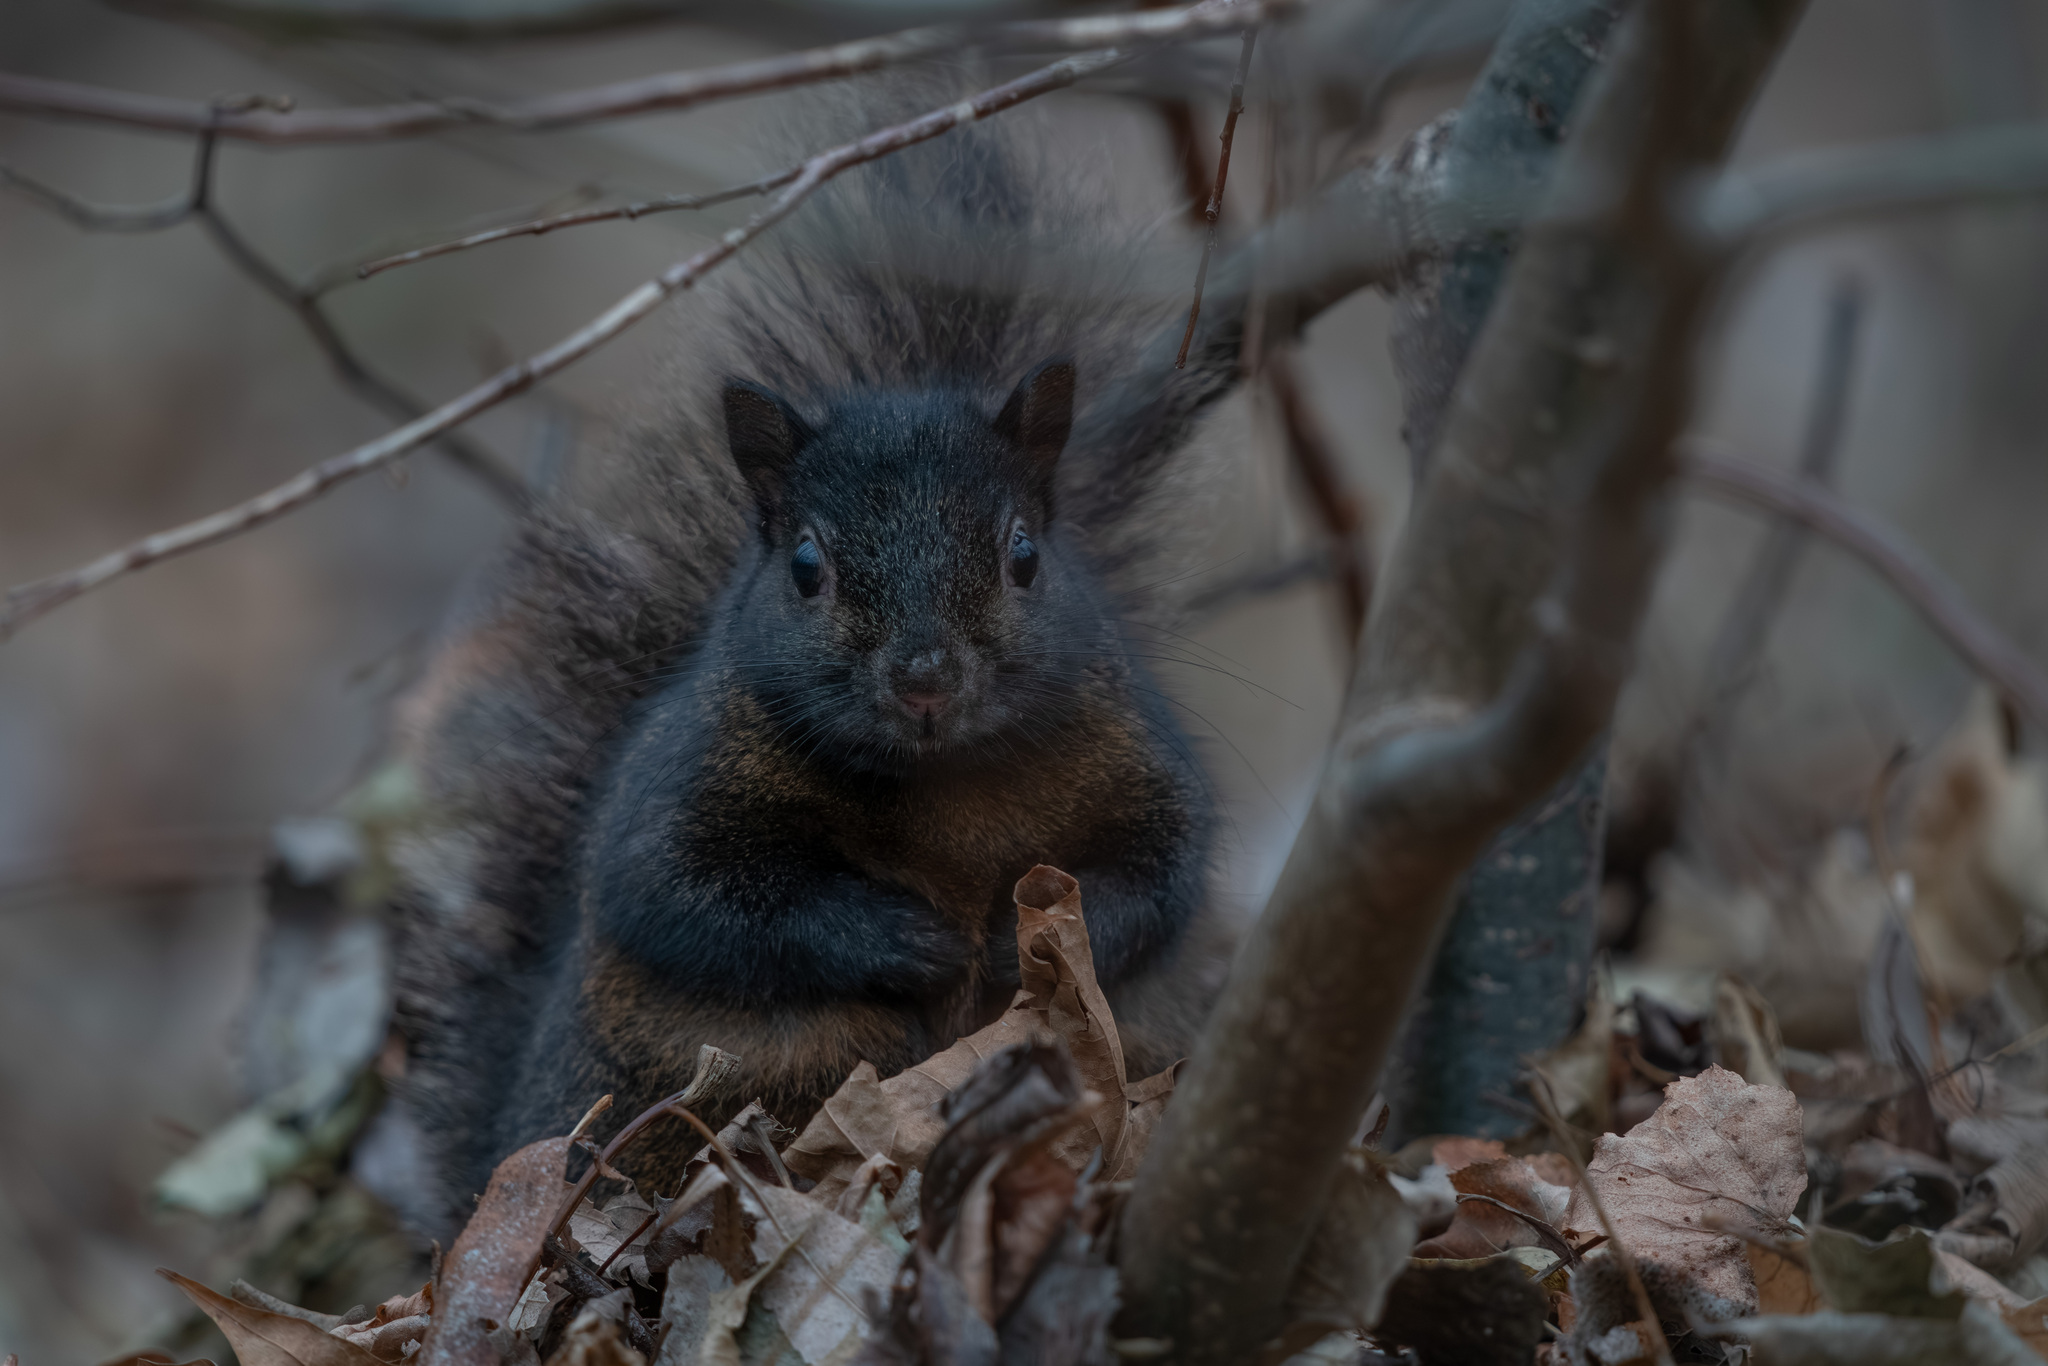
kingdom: Animalia
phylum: Chordata
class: Mammalia
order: Rodentia
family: Sciuridae
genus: Sciurus
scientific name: Sciurus carolinensis
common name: Eastern gray squirrel
